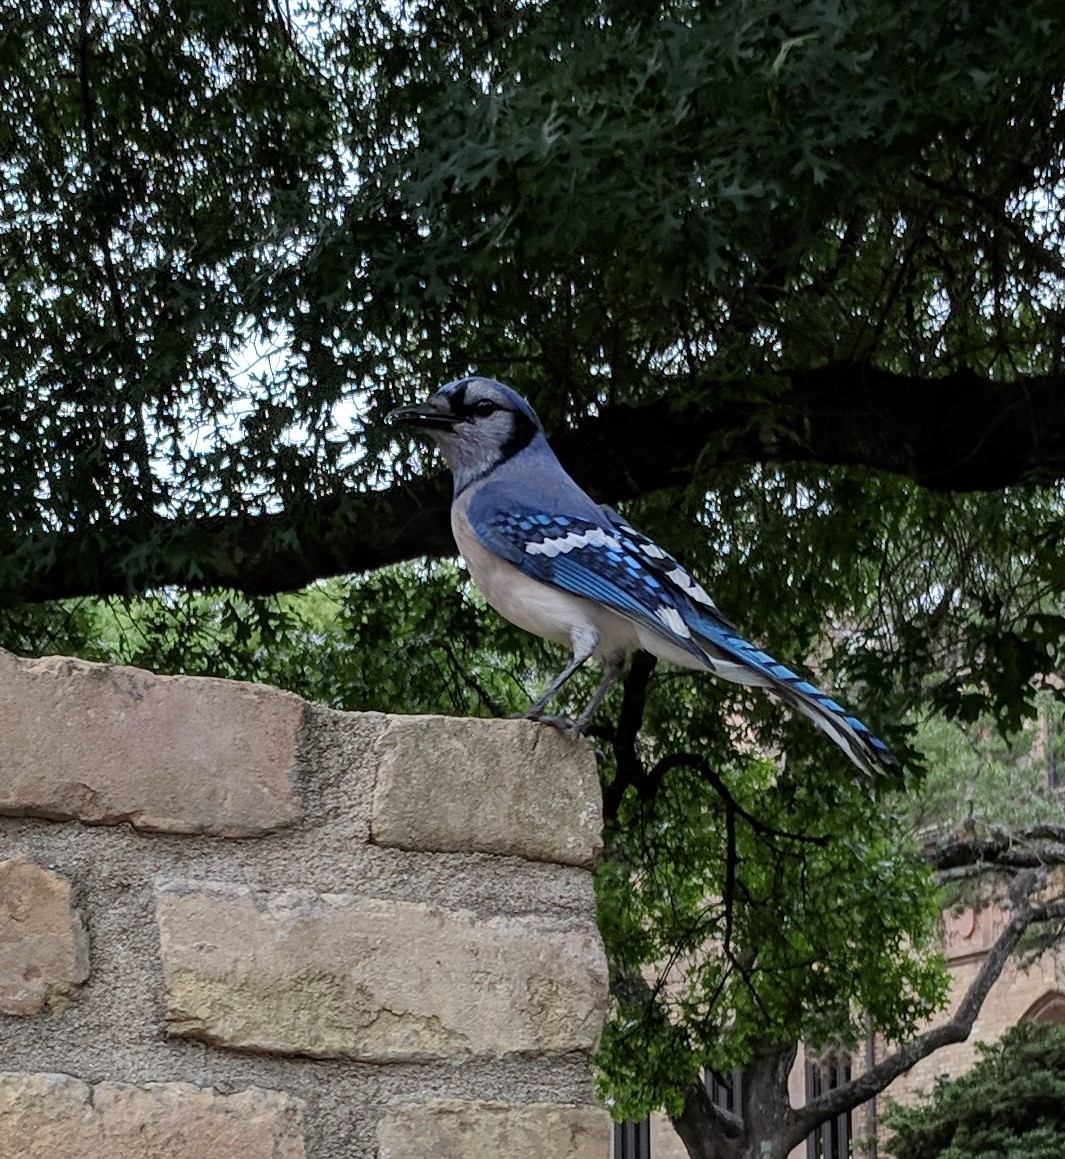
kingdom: Animalia
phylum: Chordata
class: Aves
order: Passeriformes
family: Corvidae
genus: Cyanocitta
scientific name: Cyanocitta cristata
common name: Blue jay
